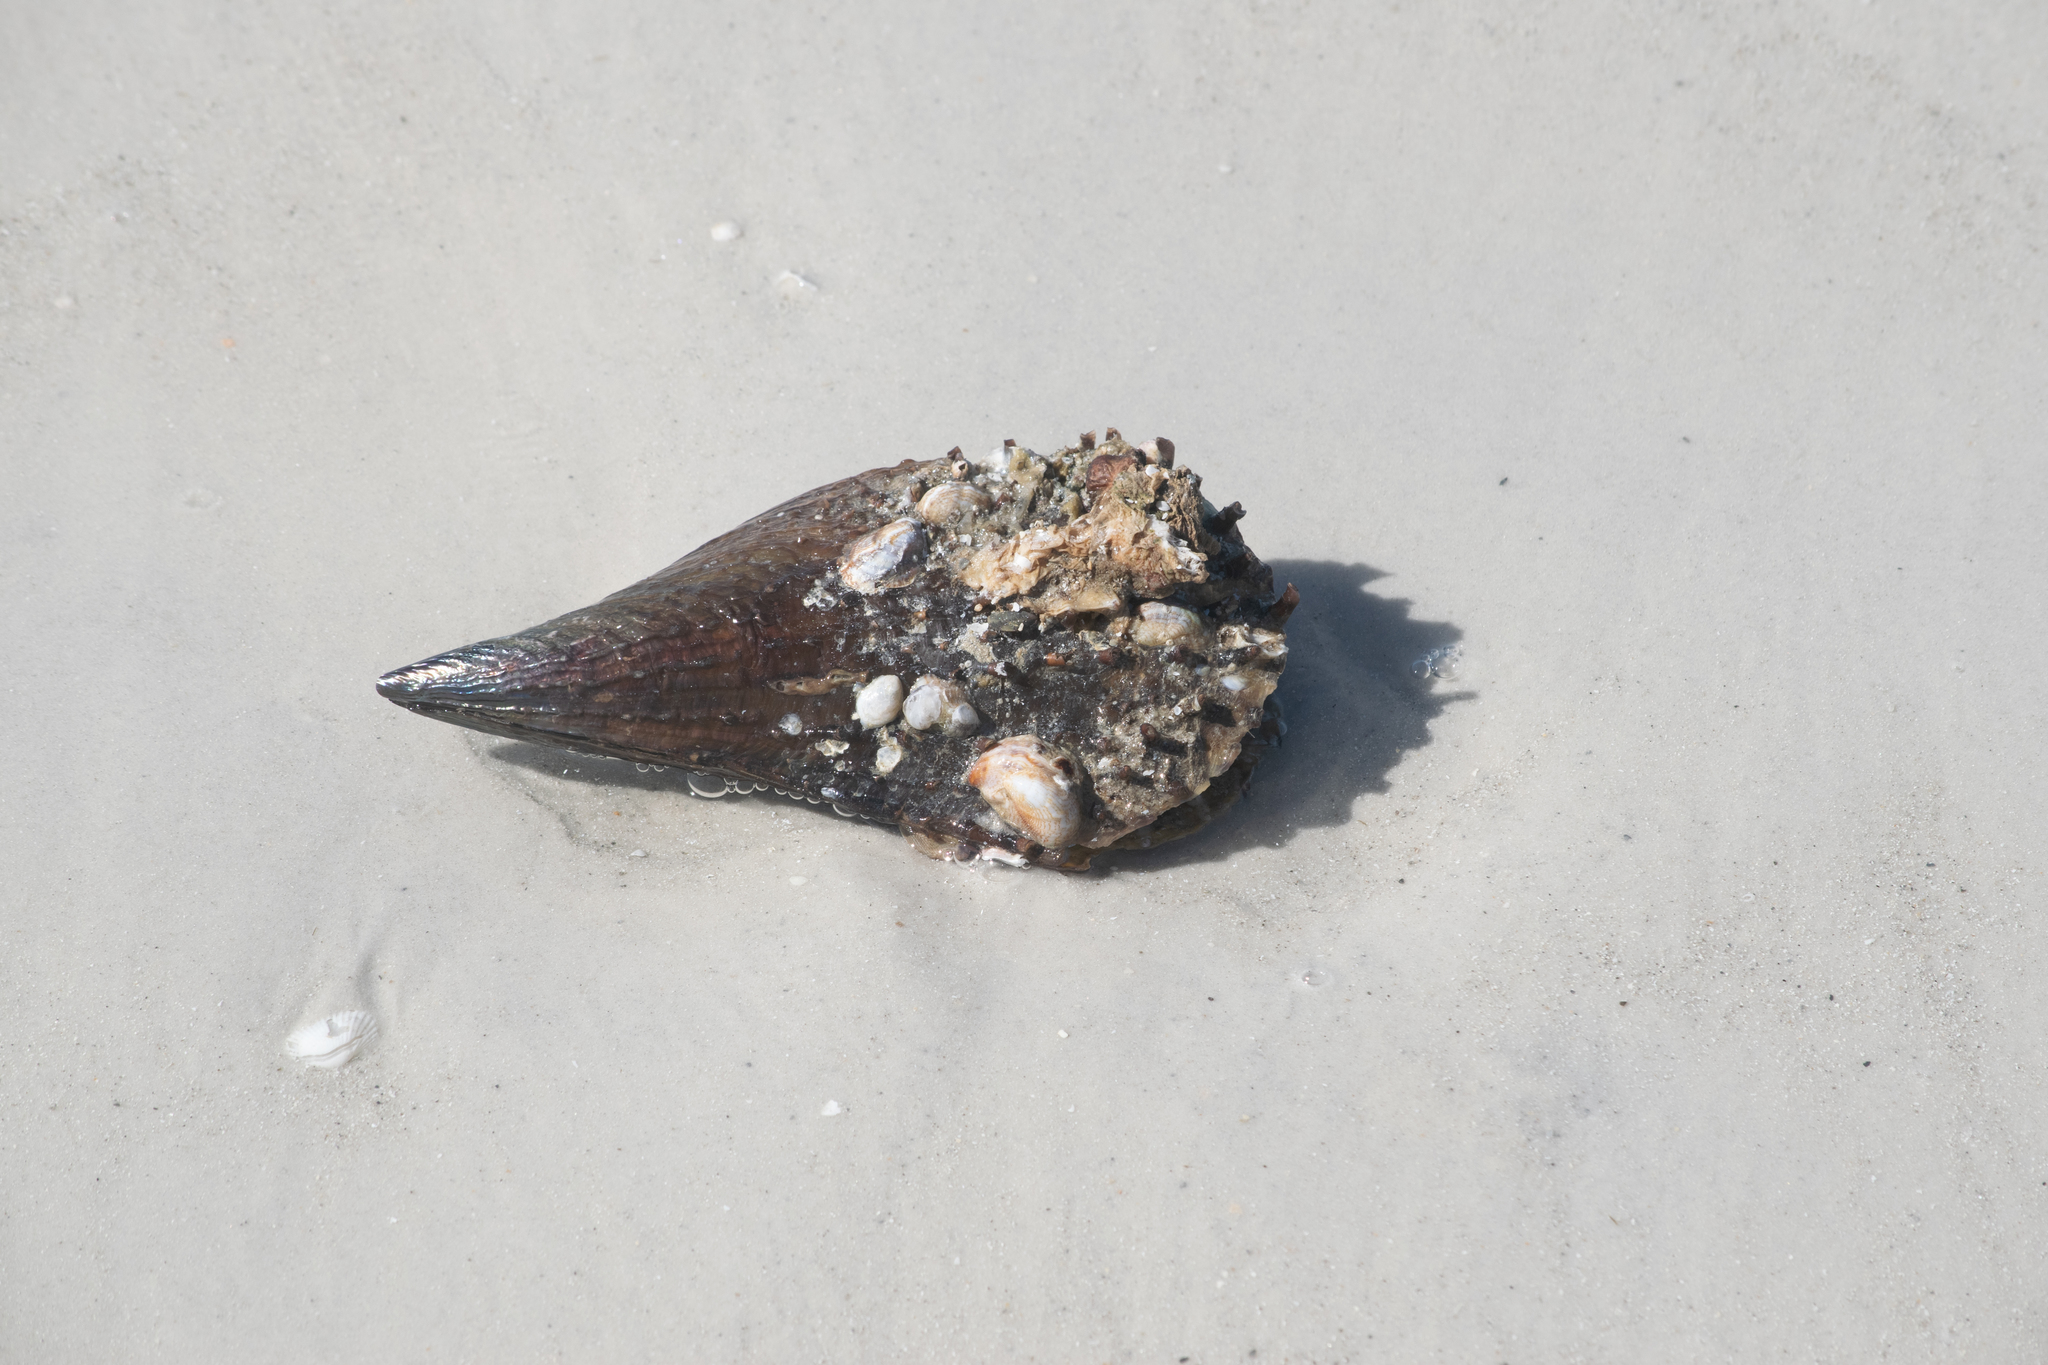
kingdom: Animalia
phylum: Mollusca
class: Bivalvia
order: Ostreida
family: Pinnidae
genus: Atrina
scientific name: Atrina rigida
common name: Stiff penshell
